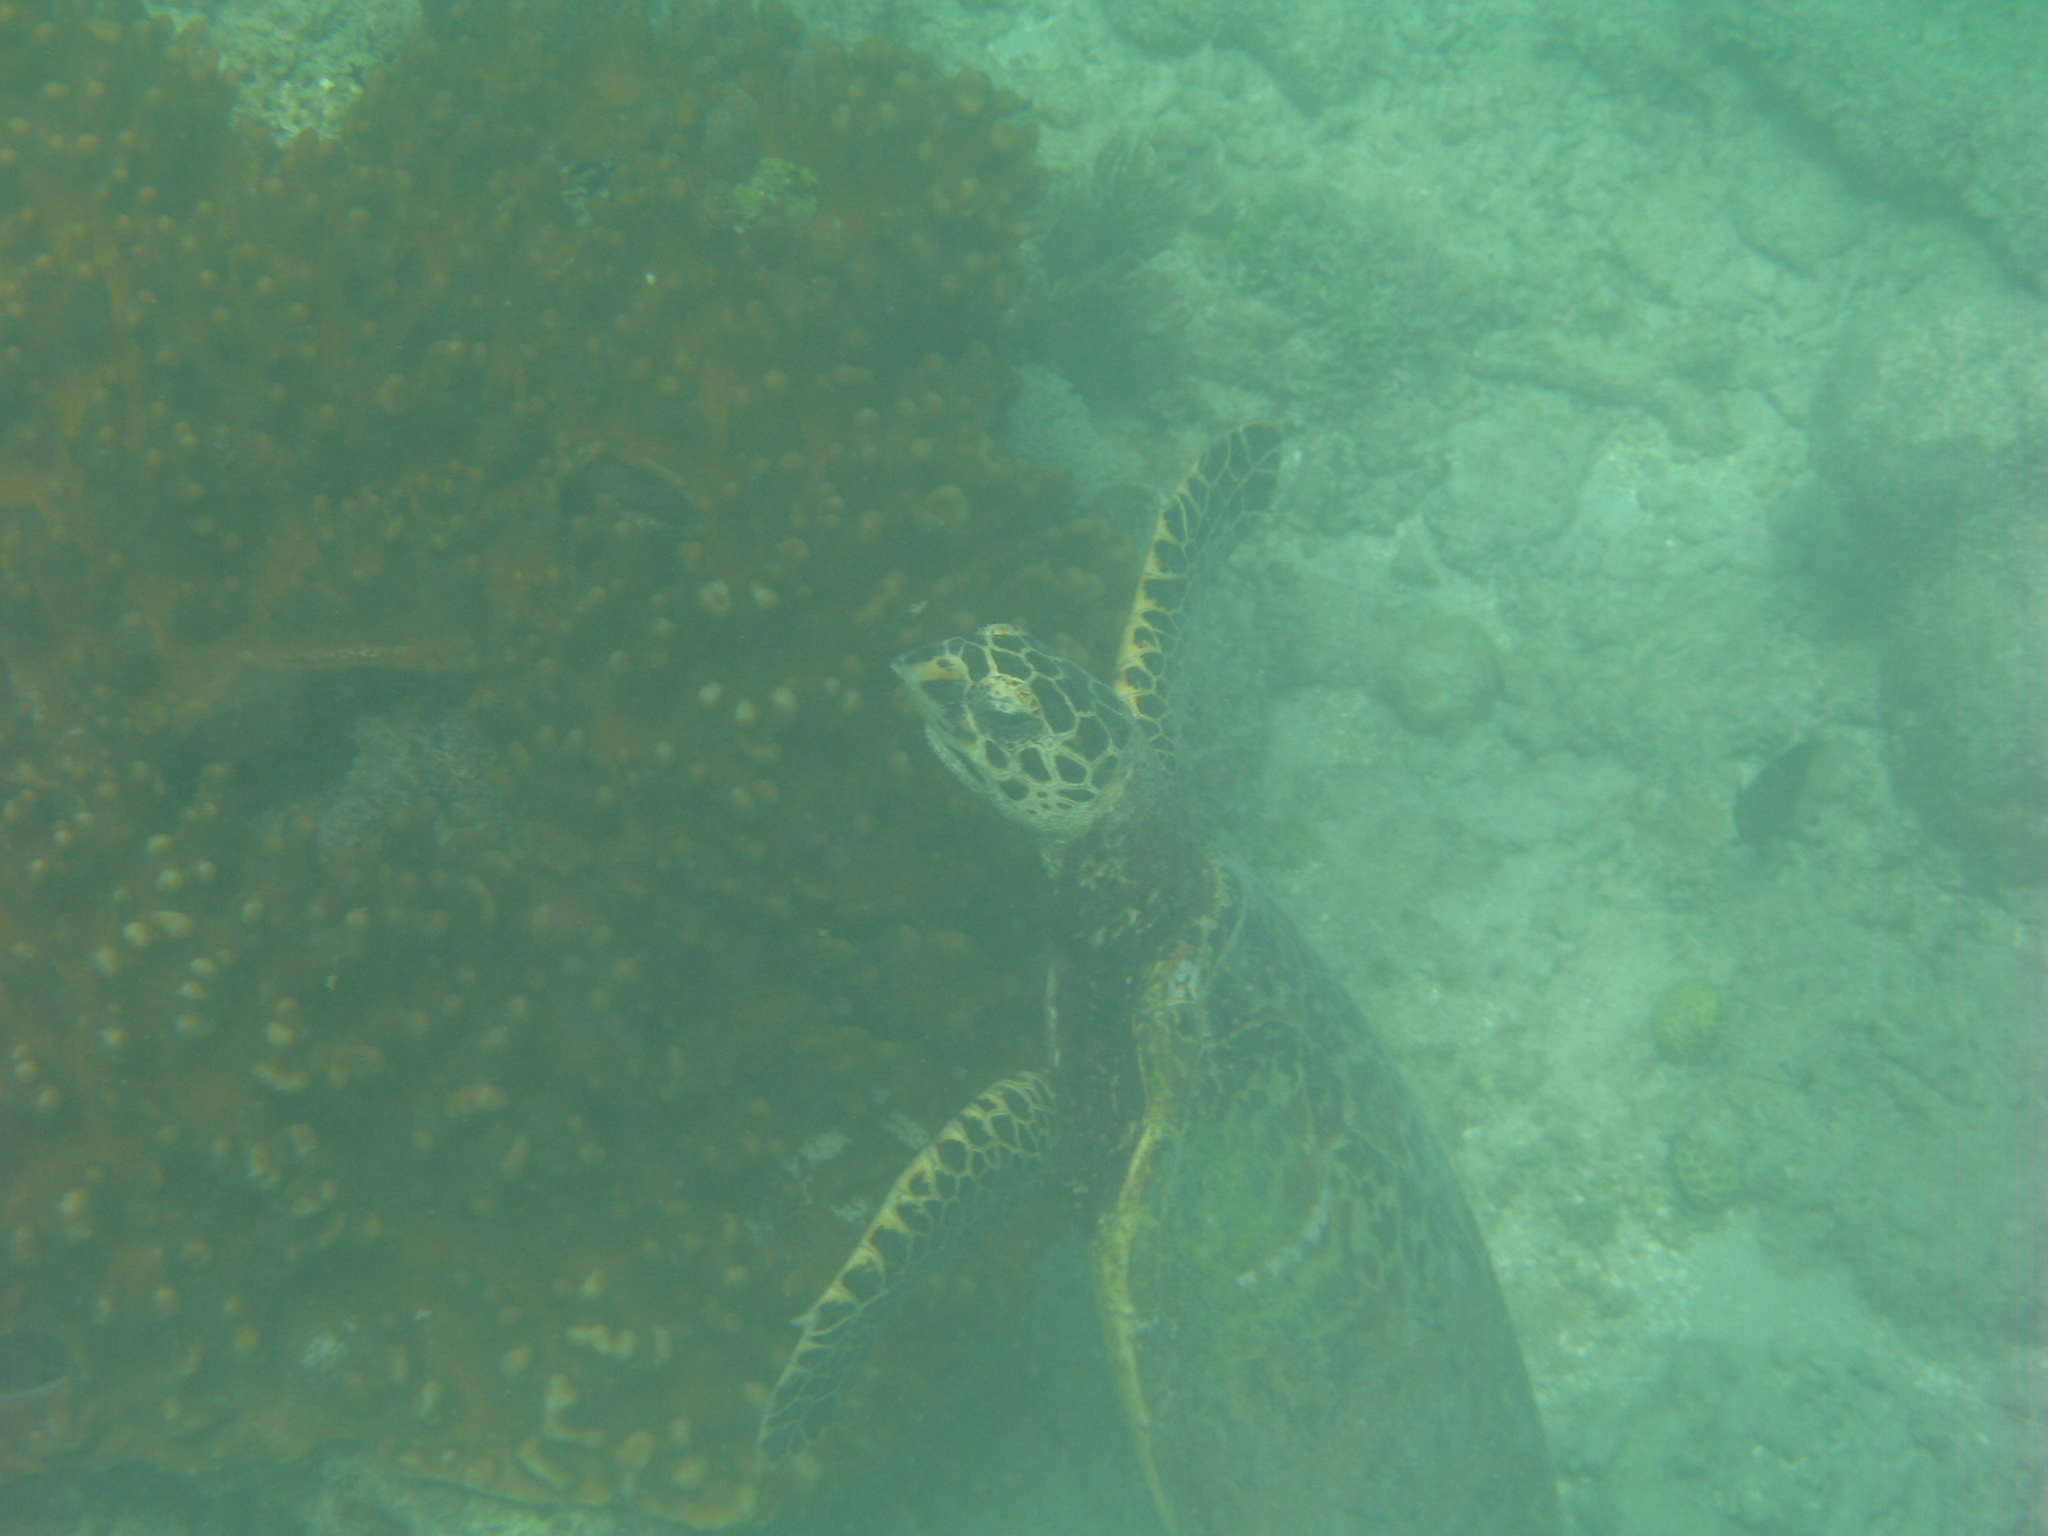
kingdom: Animalia
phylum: Chordata
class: Testudines
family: Cheloniidae
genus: Eretmochelys
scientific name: Eretmochelys imbricata
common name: Hawksbill turtle
